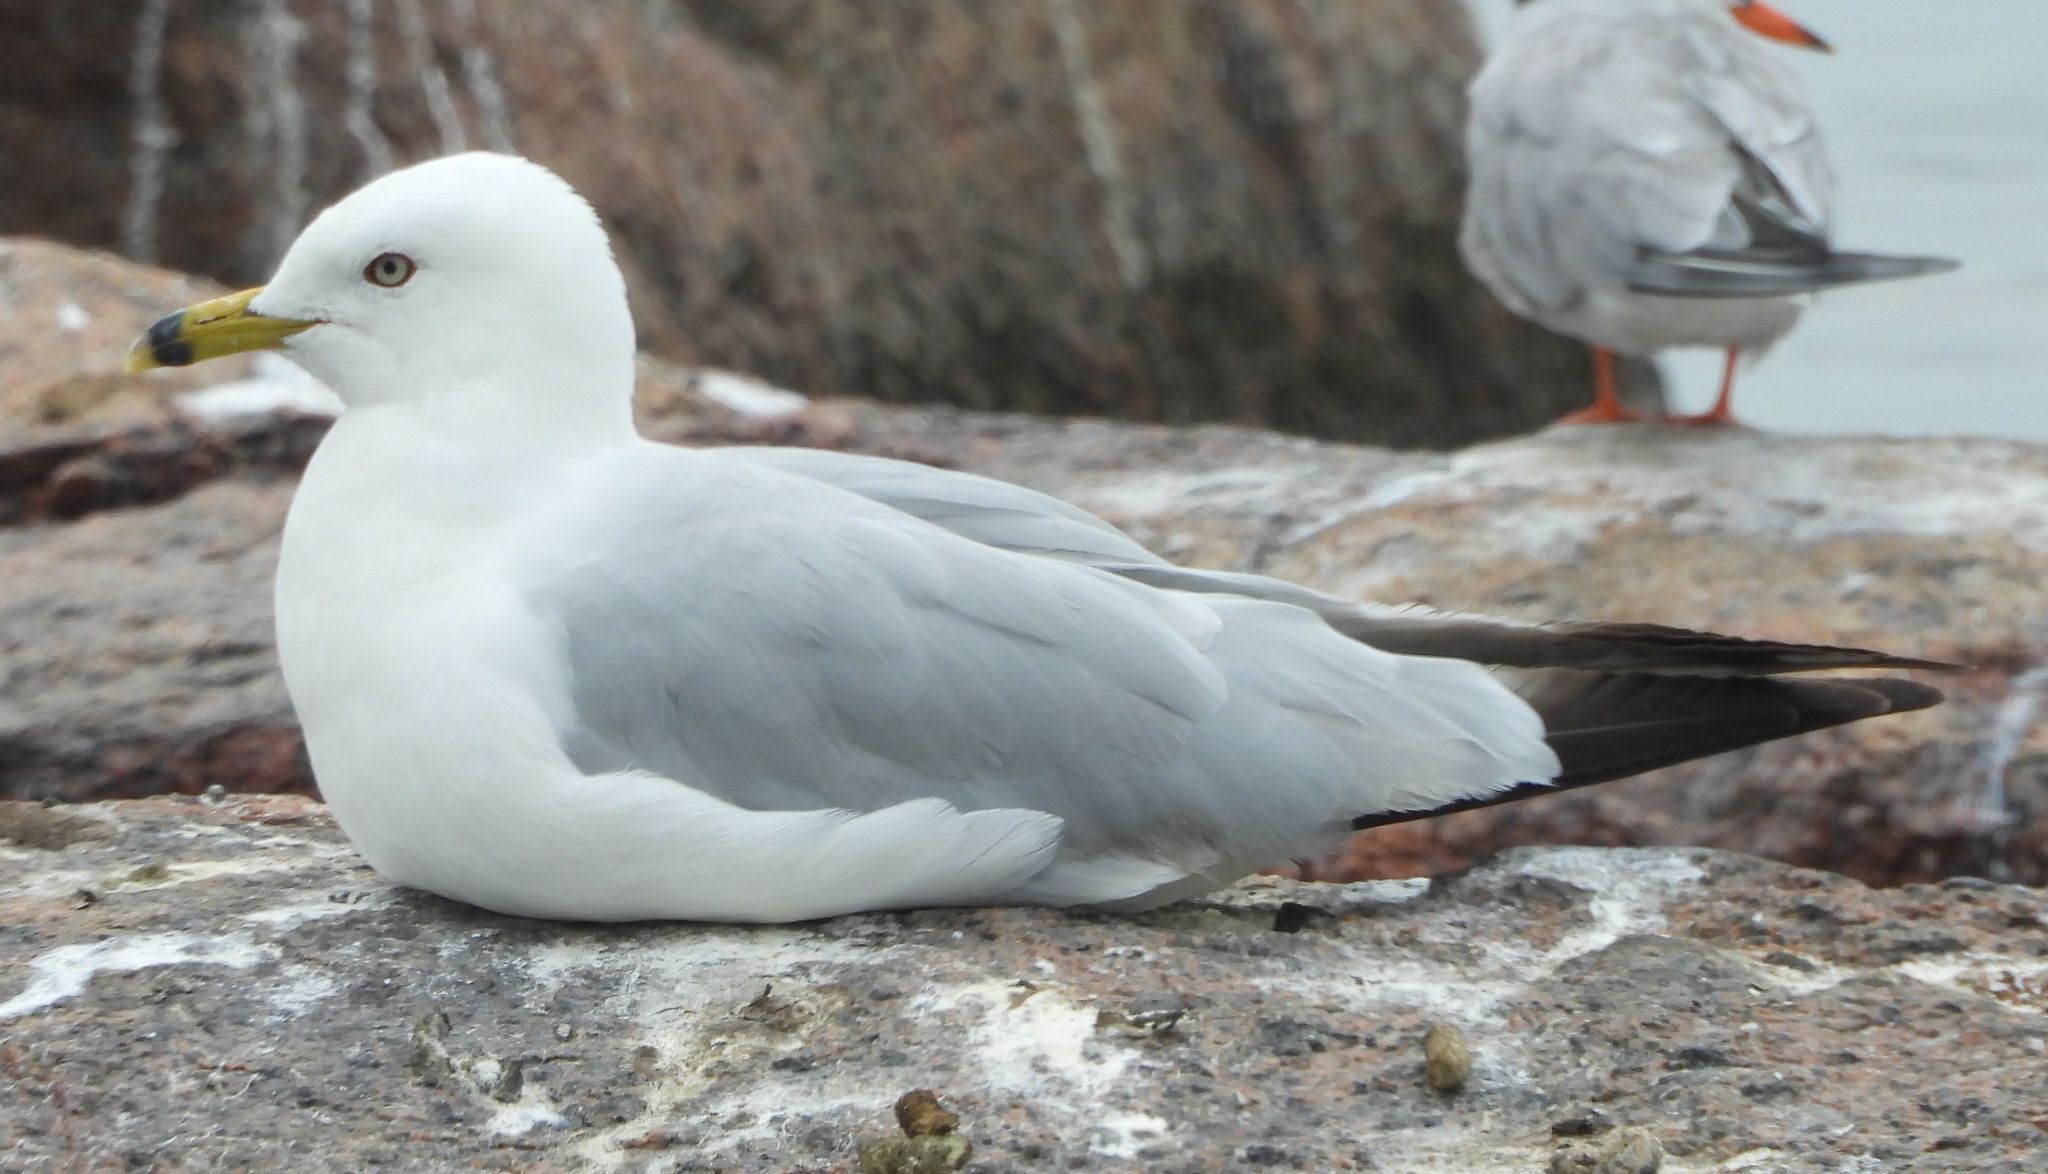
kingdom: Animalia
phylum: Chordata
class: Aves
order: Charadriiformes
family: Laridae
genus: Larus
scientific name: Larus delawarensis
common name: Ring-billed gull
